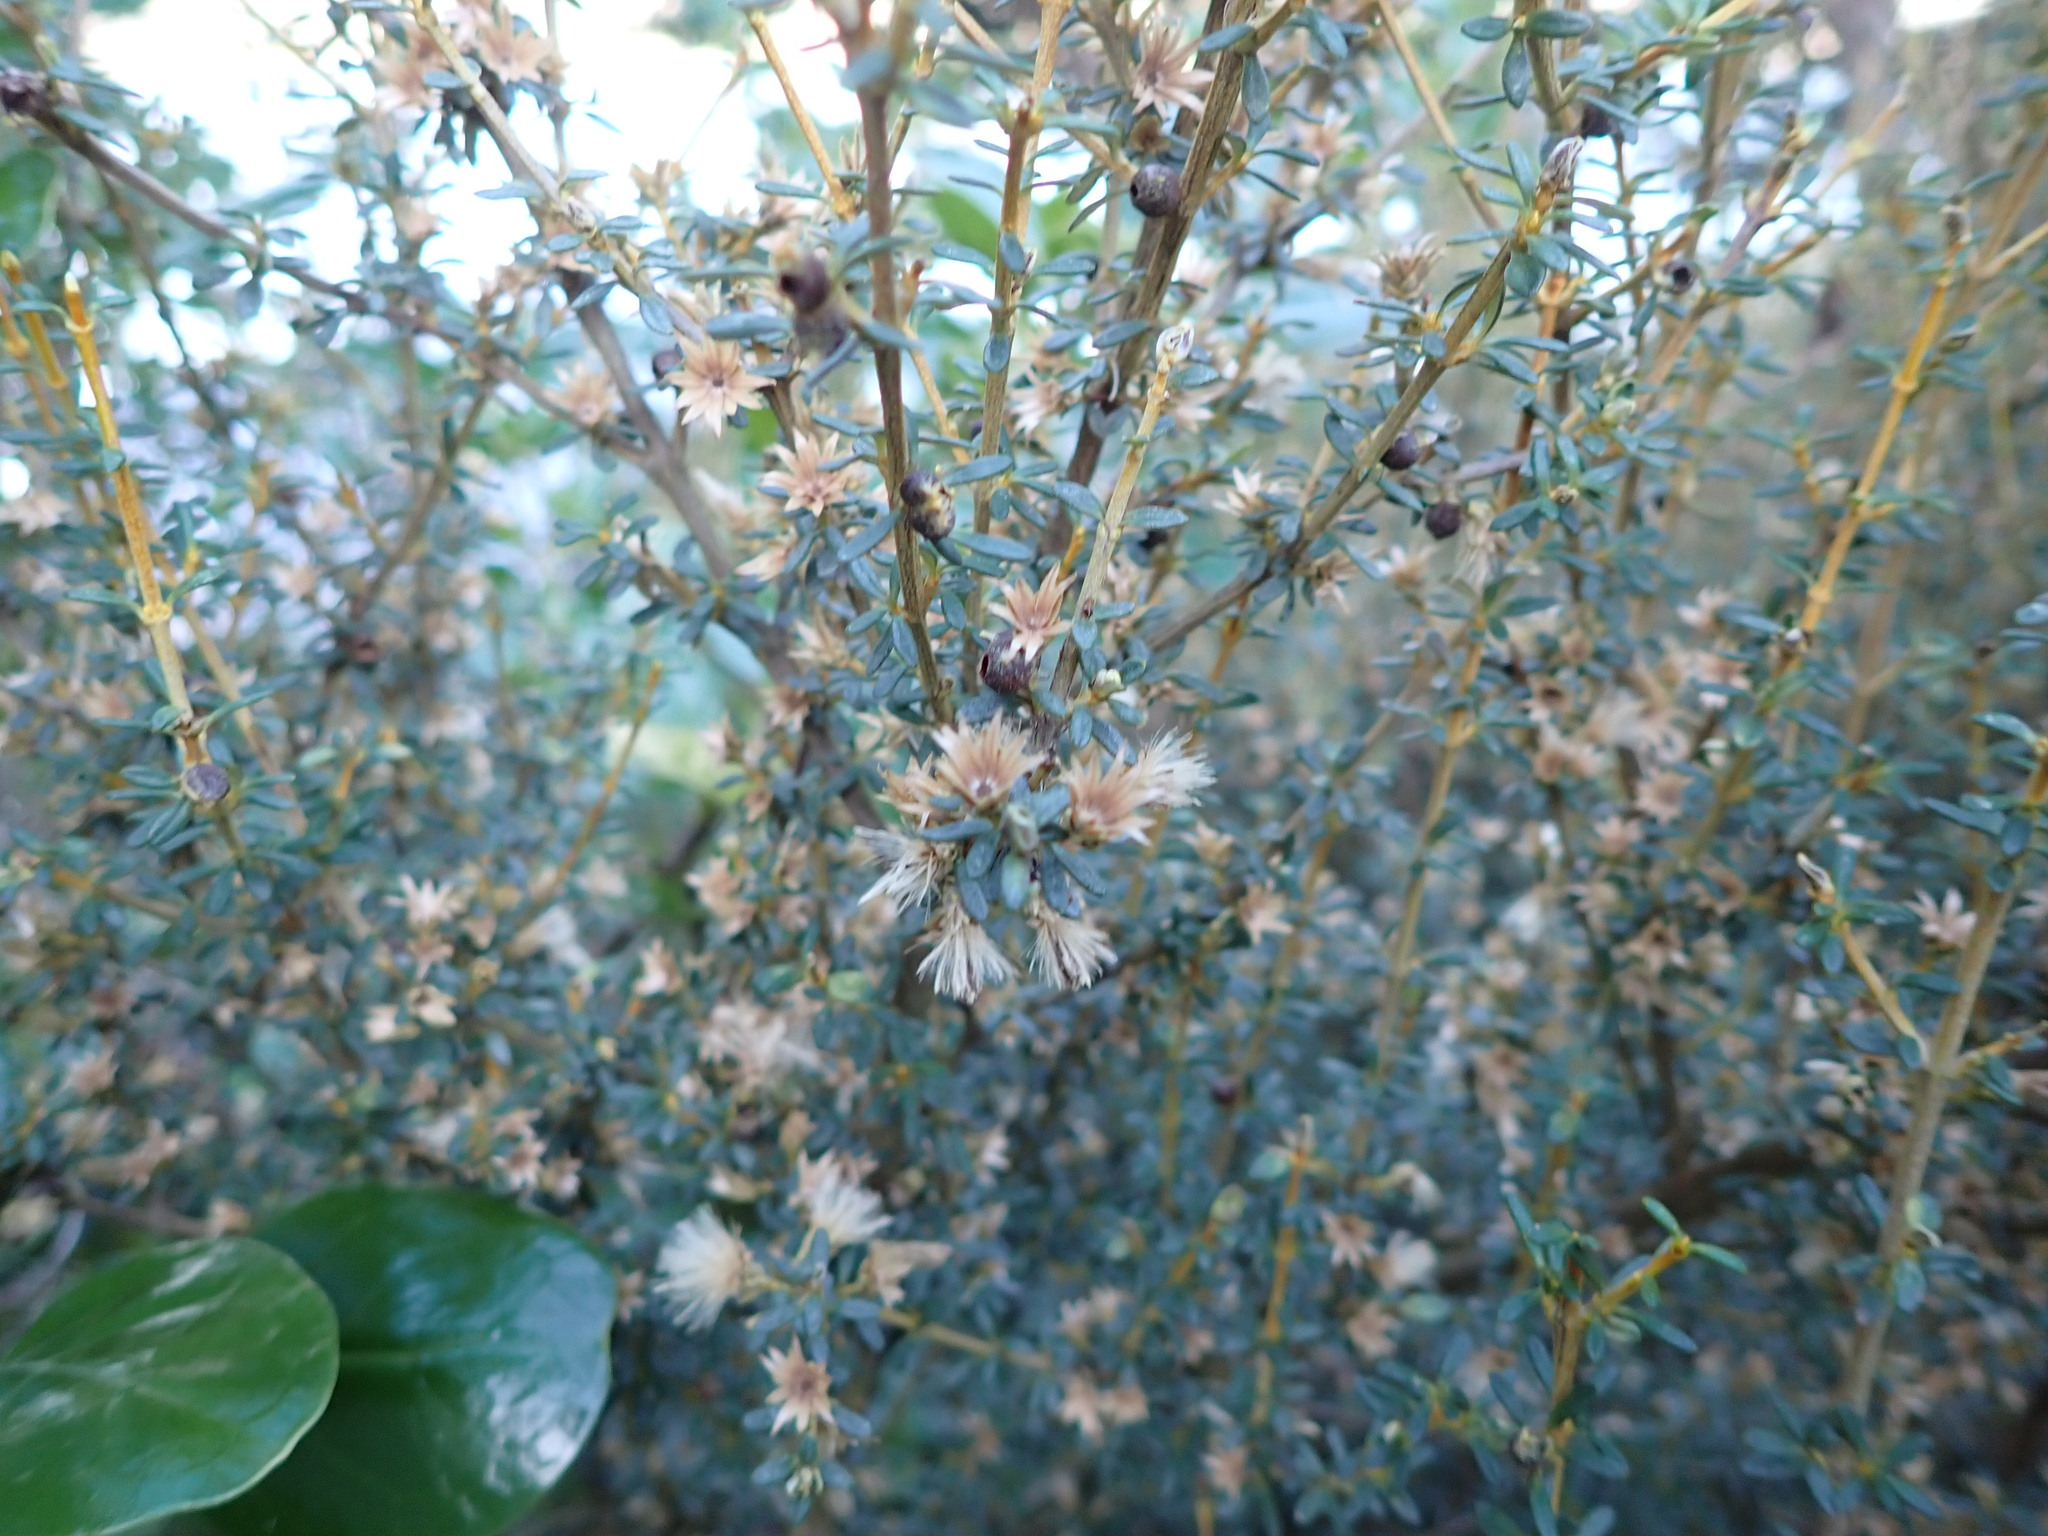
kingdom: Plantae
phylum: Tracheophyta
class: Magnoliopsida
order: Asterales
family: Asteraceae
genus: Olearia
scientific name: Olearia solandri
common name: Coastal daisybush
